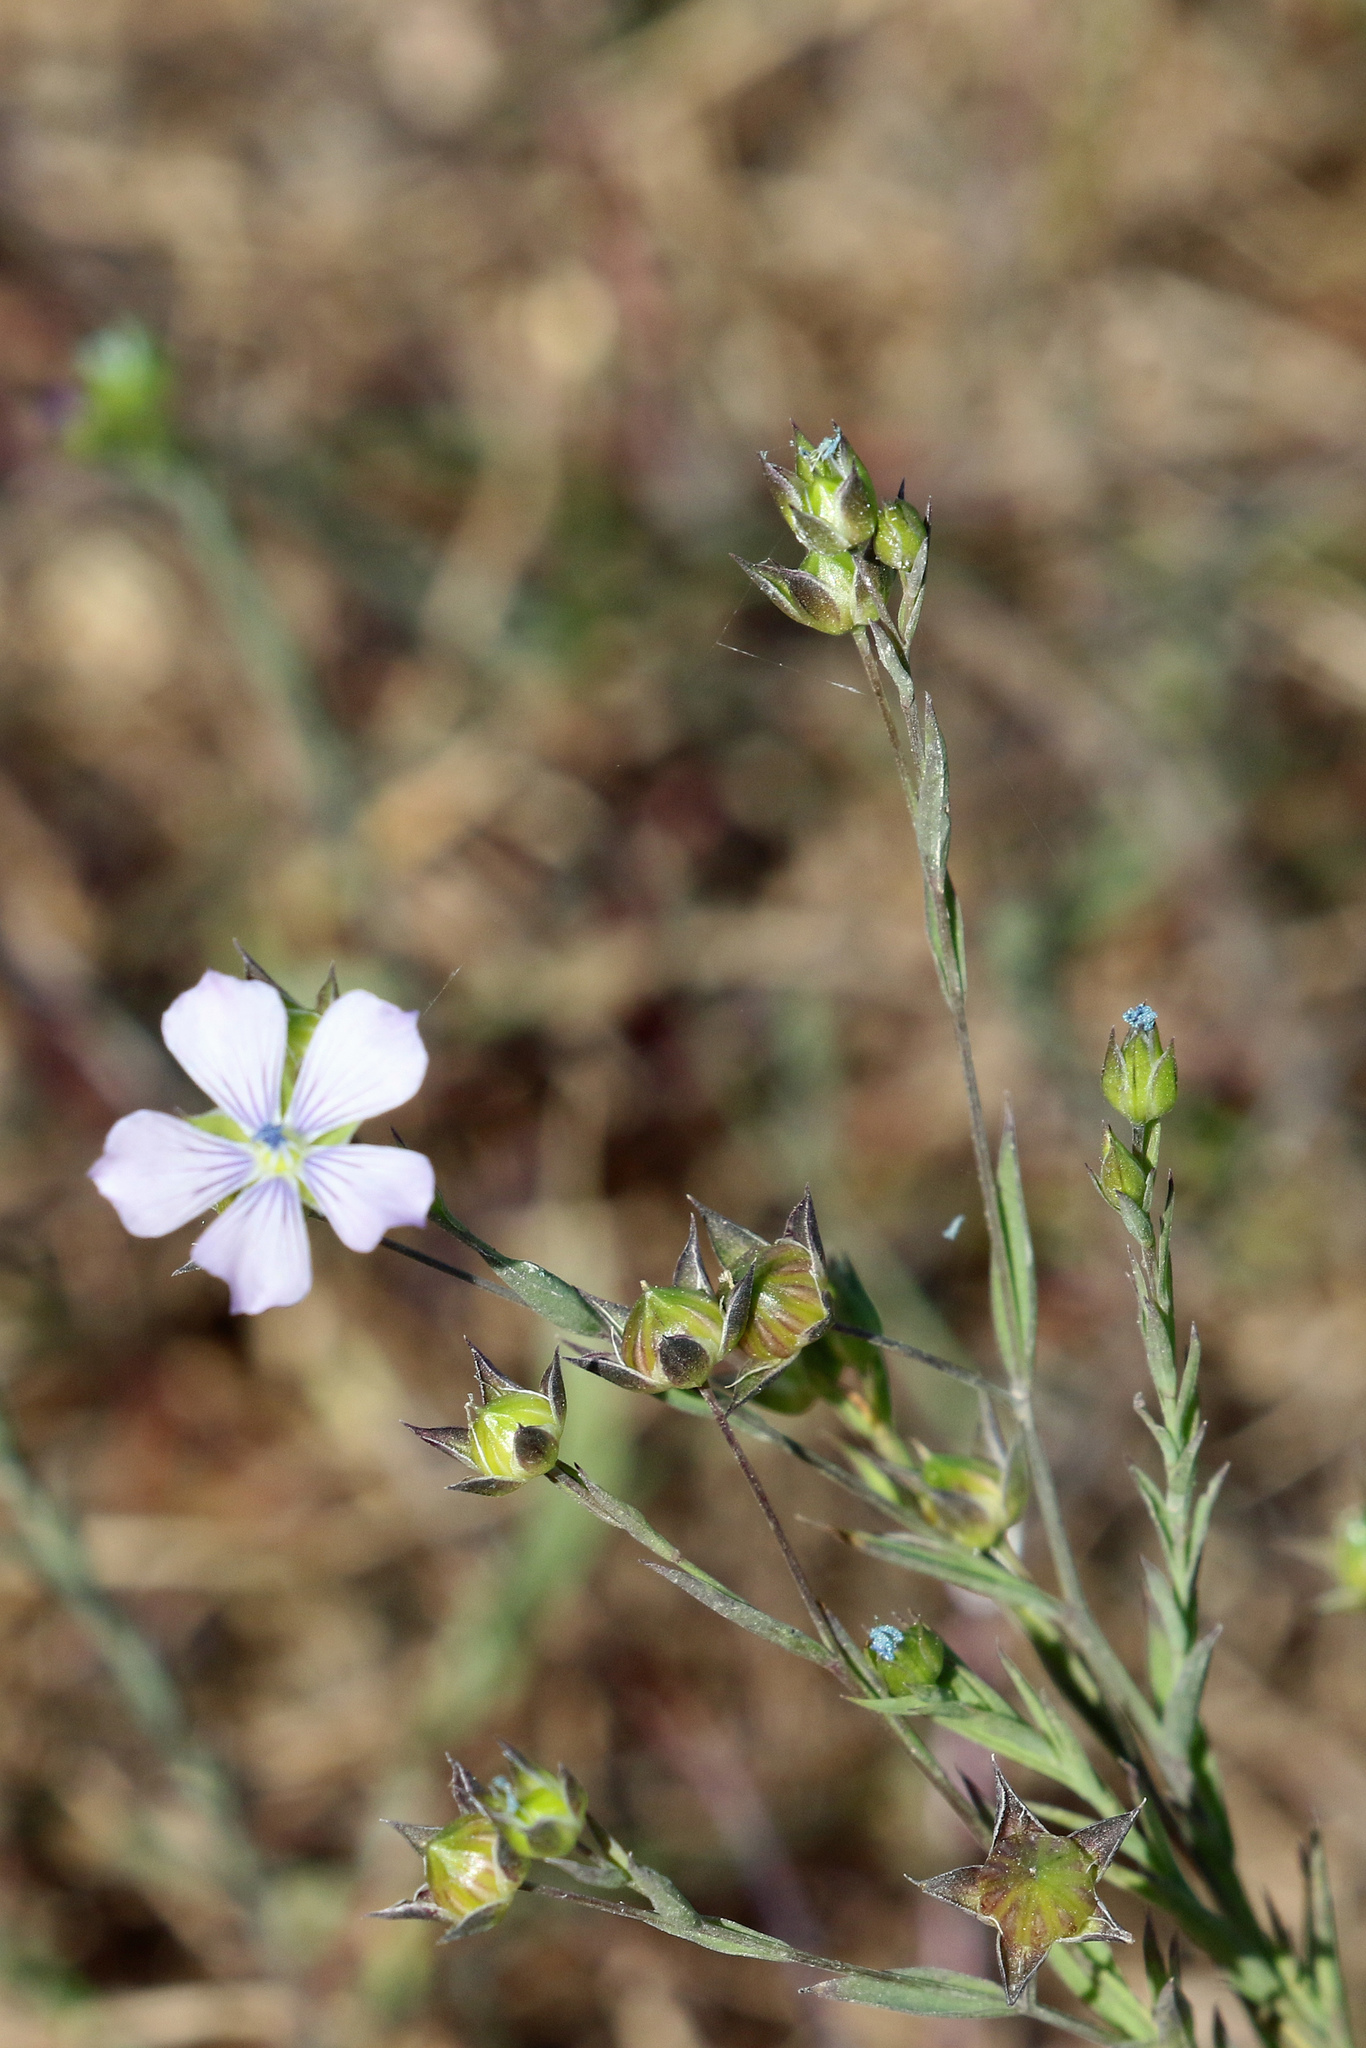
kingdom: Plantae
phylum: Tracheophyta
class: Magnoliopsida
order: Malpighiales
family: Linaceae
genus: Linum
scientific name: Linum bienne
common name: Pale flax
